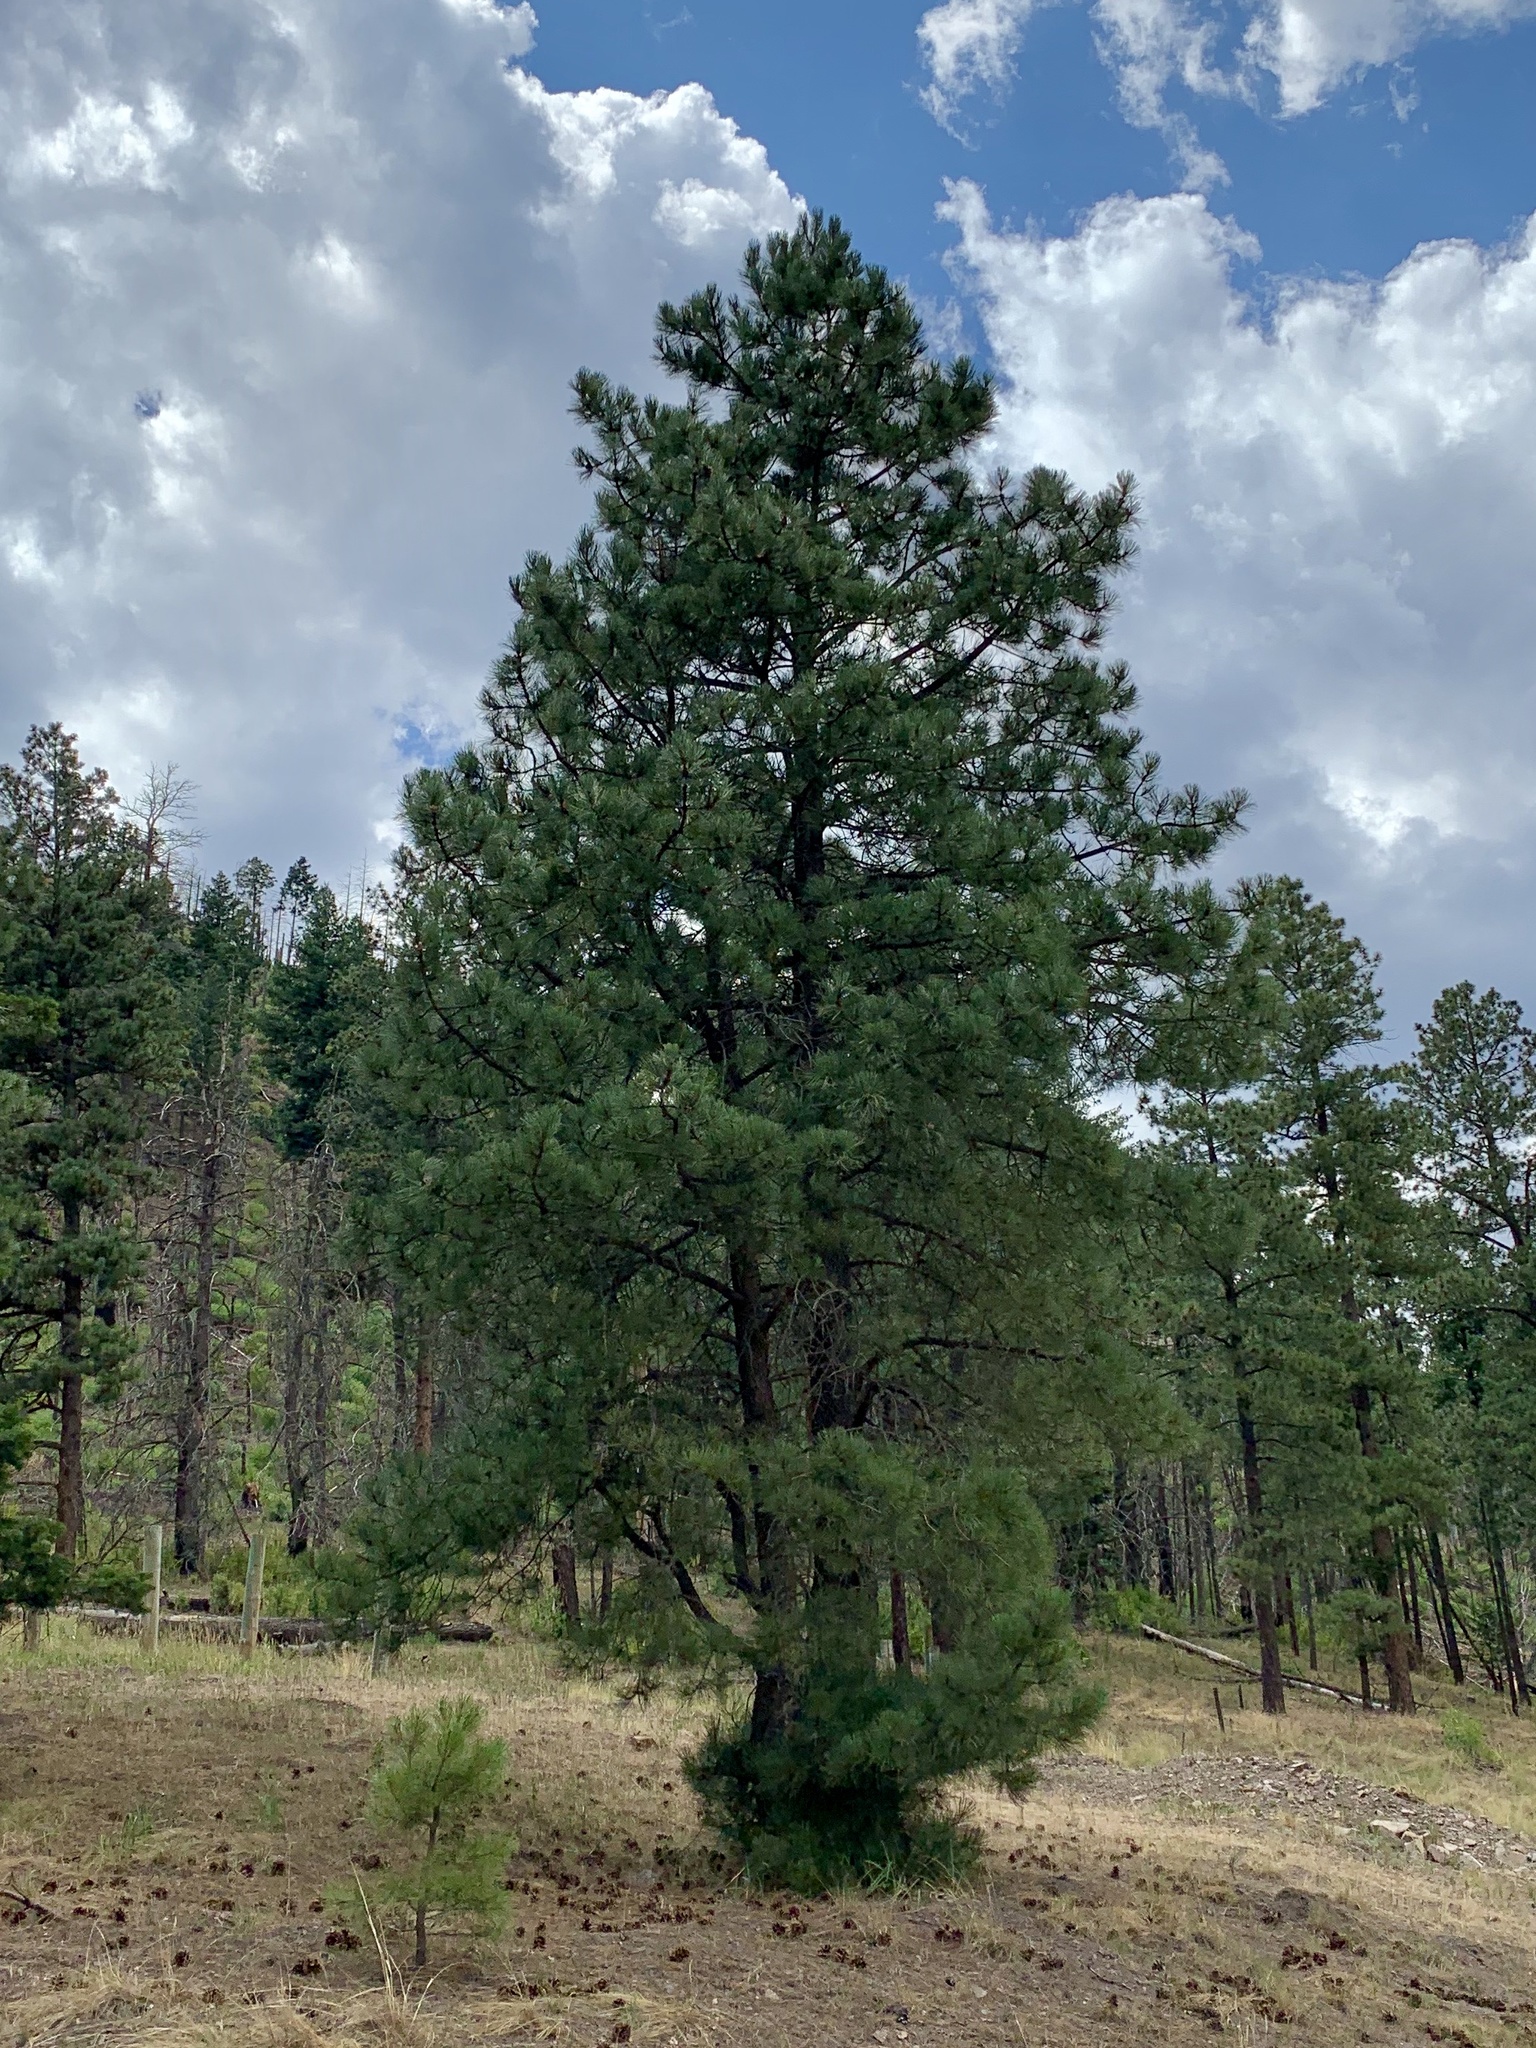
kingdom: Plantae
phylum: Tracheophyta
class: Pinopsida
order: Pinales
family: Pinaceae
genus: Pinus
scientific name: Pinus ponderosa
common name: Western yellow-pine
